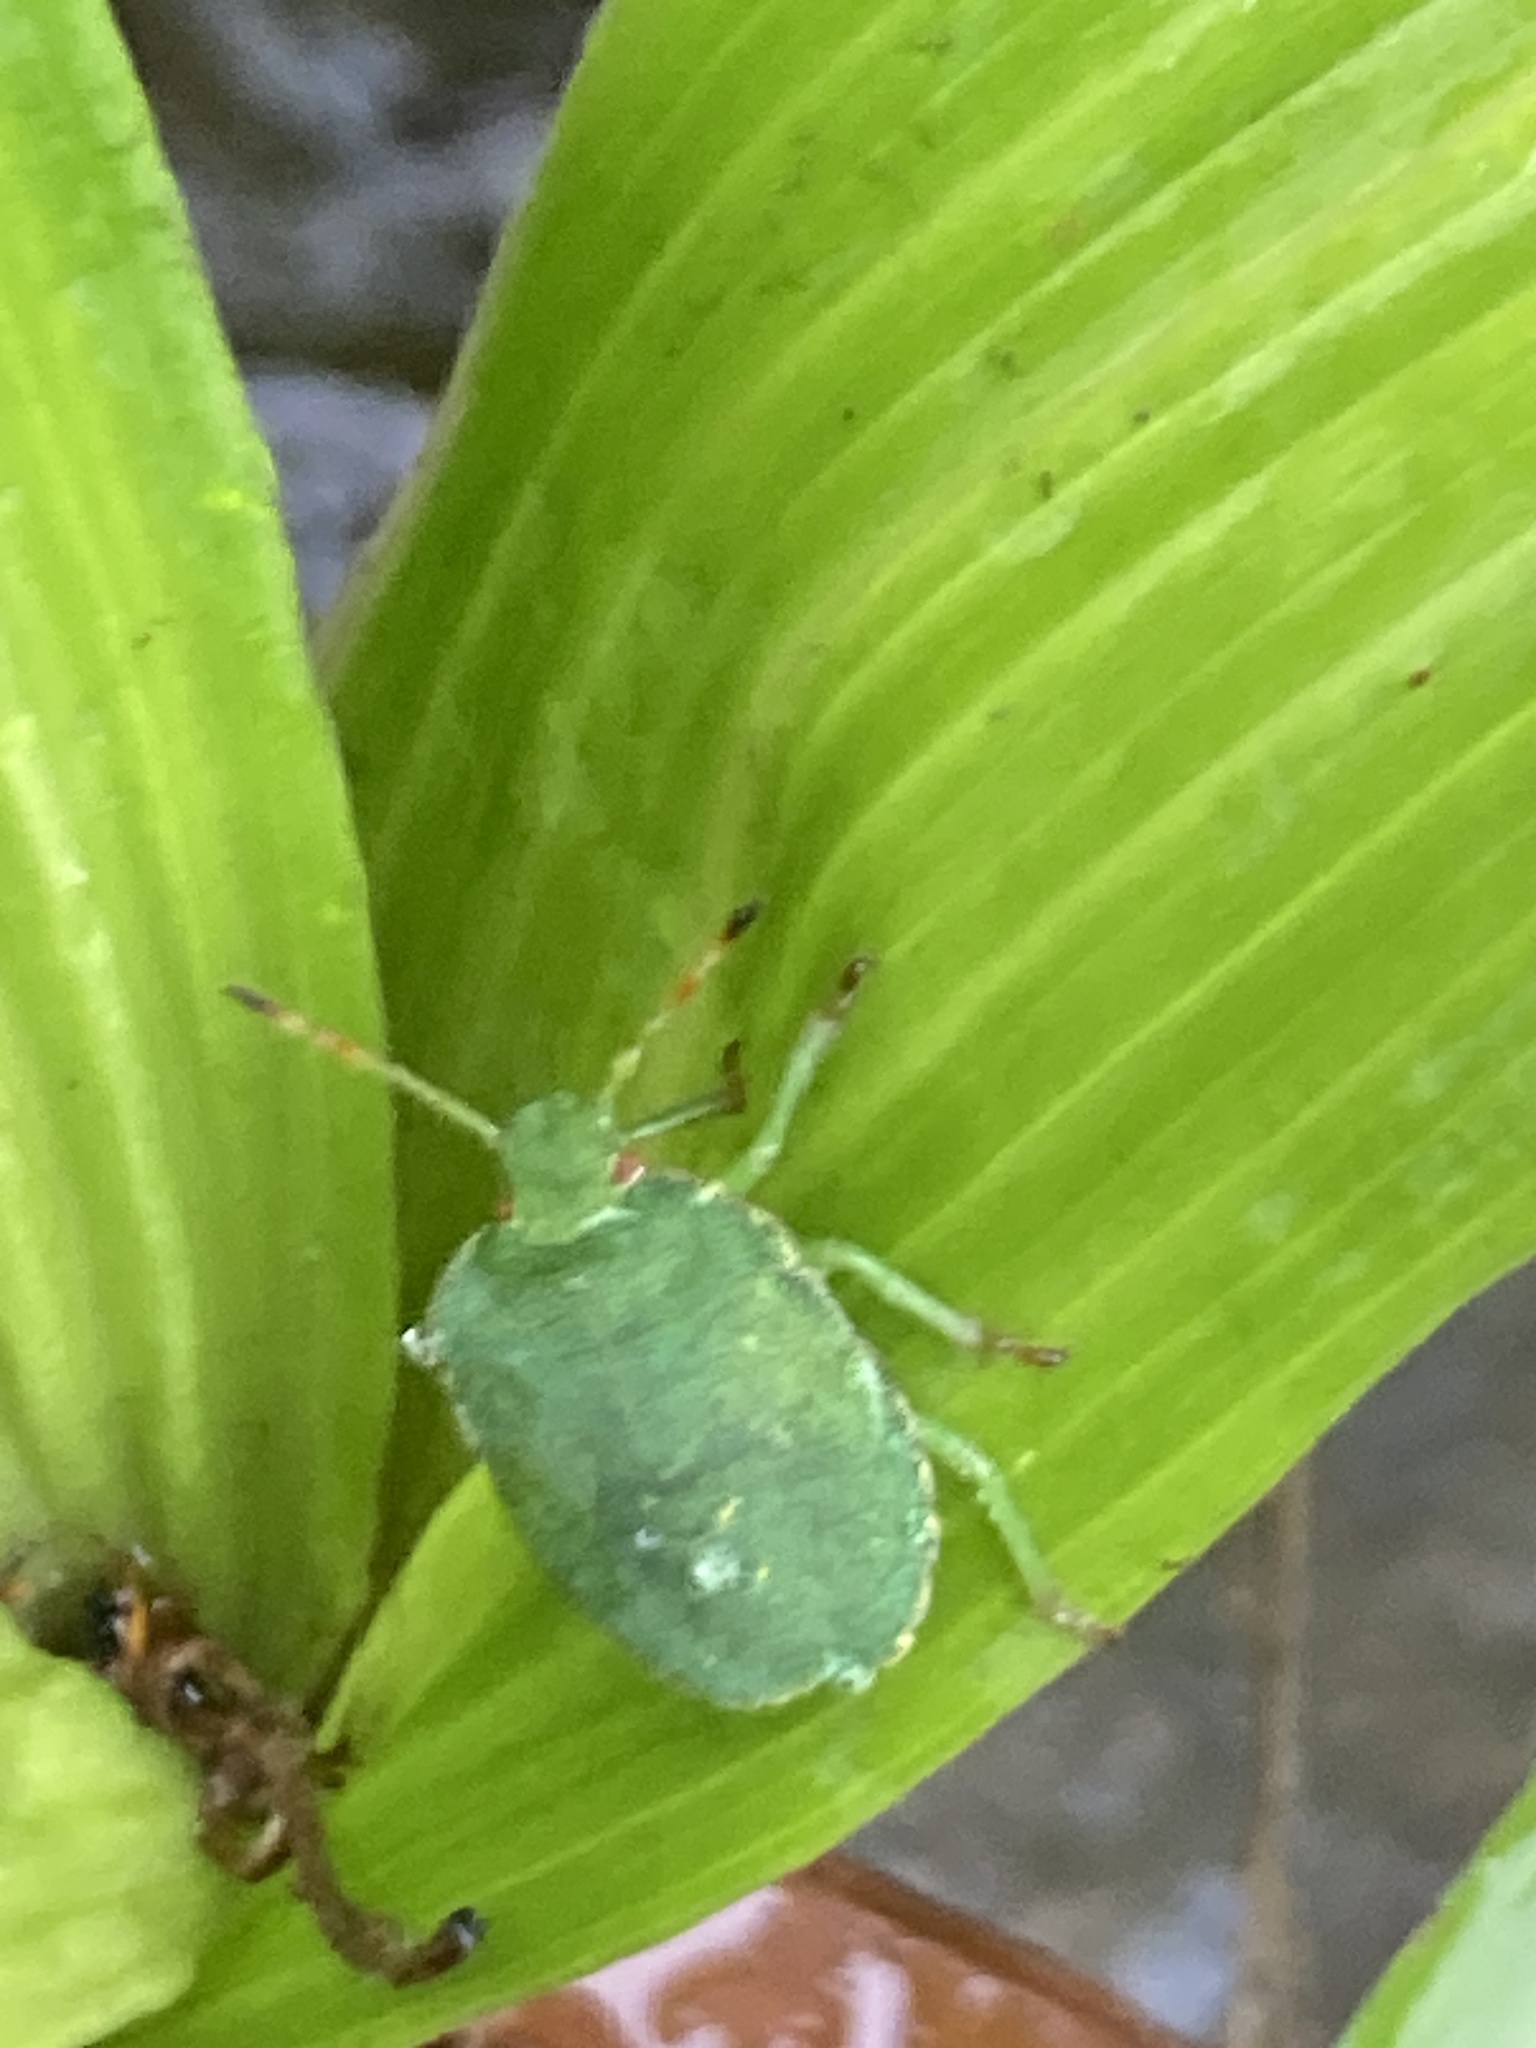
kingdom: Animalia
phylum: Arthropoda
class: Insecta
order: Hemiptera
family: Pentatomidae
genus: Palomena
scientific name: Palomena prasina
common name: Green shieldbug
